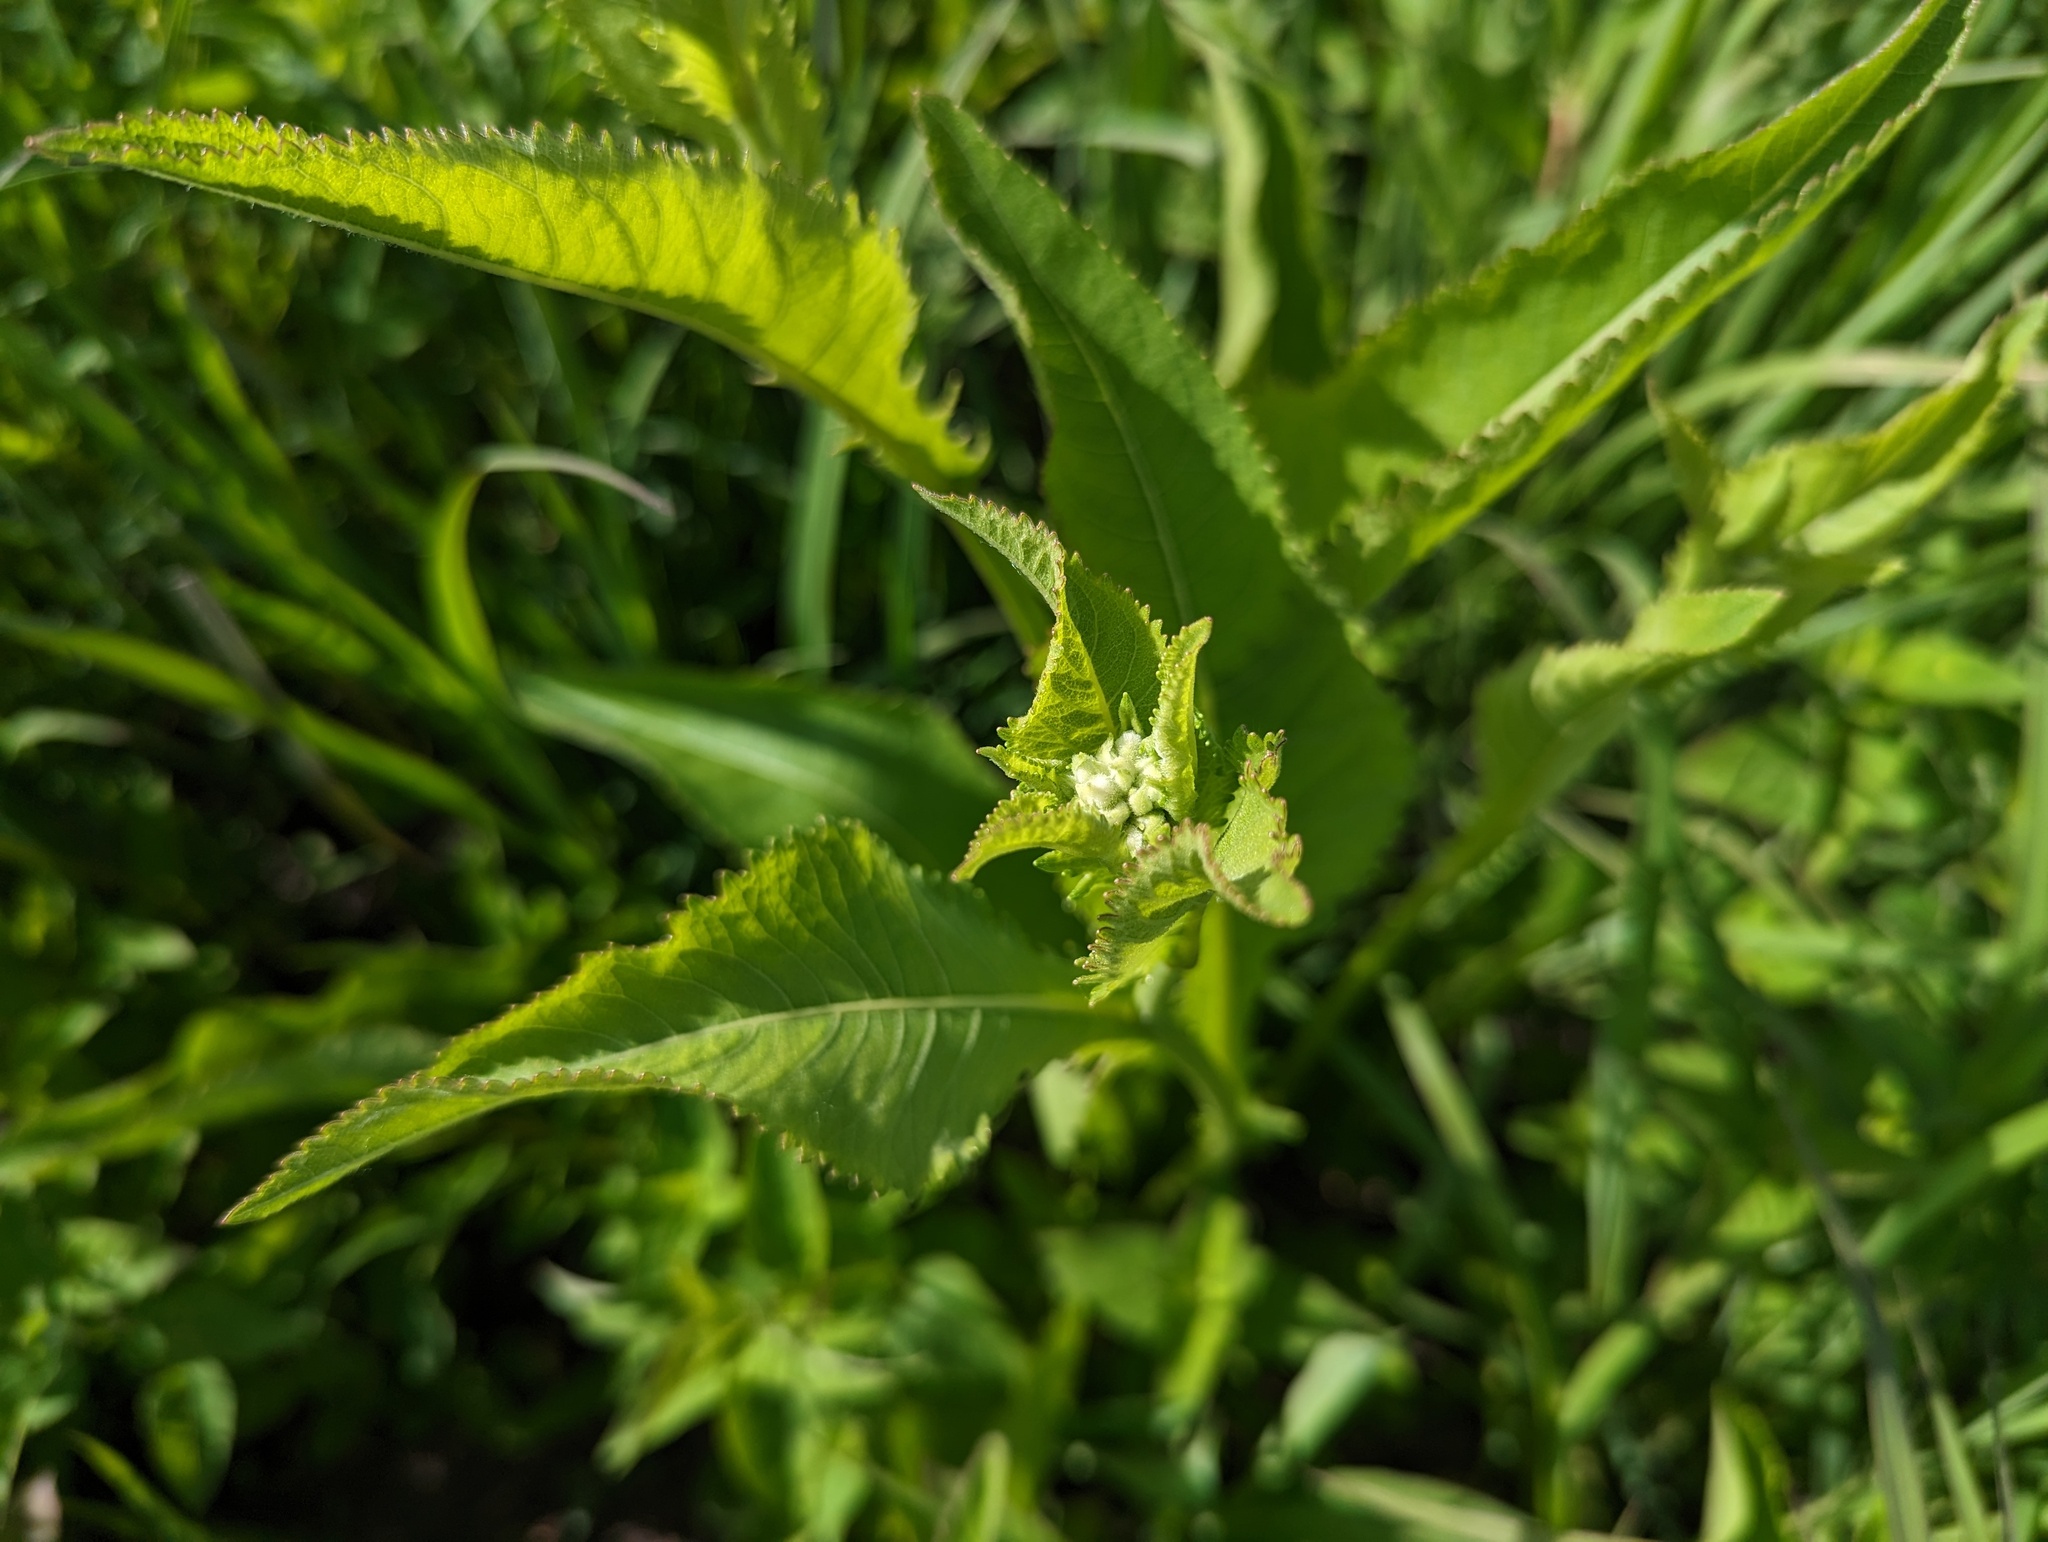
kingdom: Plantae
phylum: Tracheophyta
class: Magnoliopsida
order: Asterales
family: Asteraceae
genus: Parthenium
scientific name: Parthenium integrifolium
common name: American feverfew
